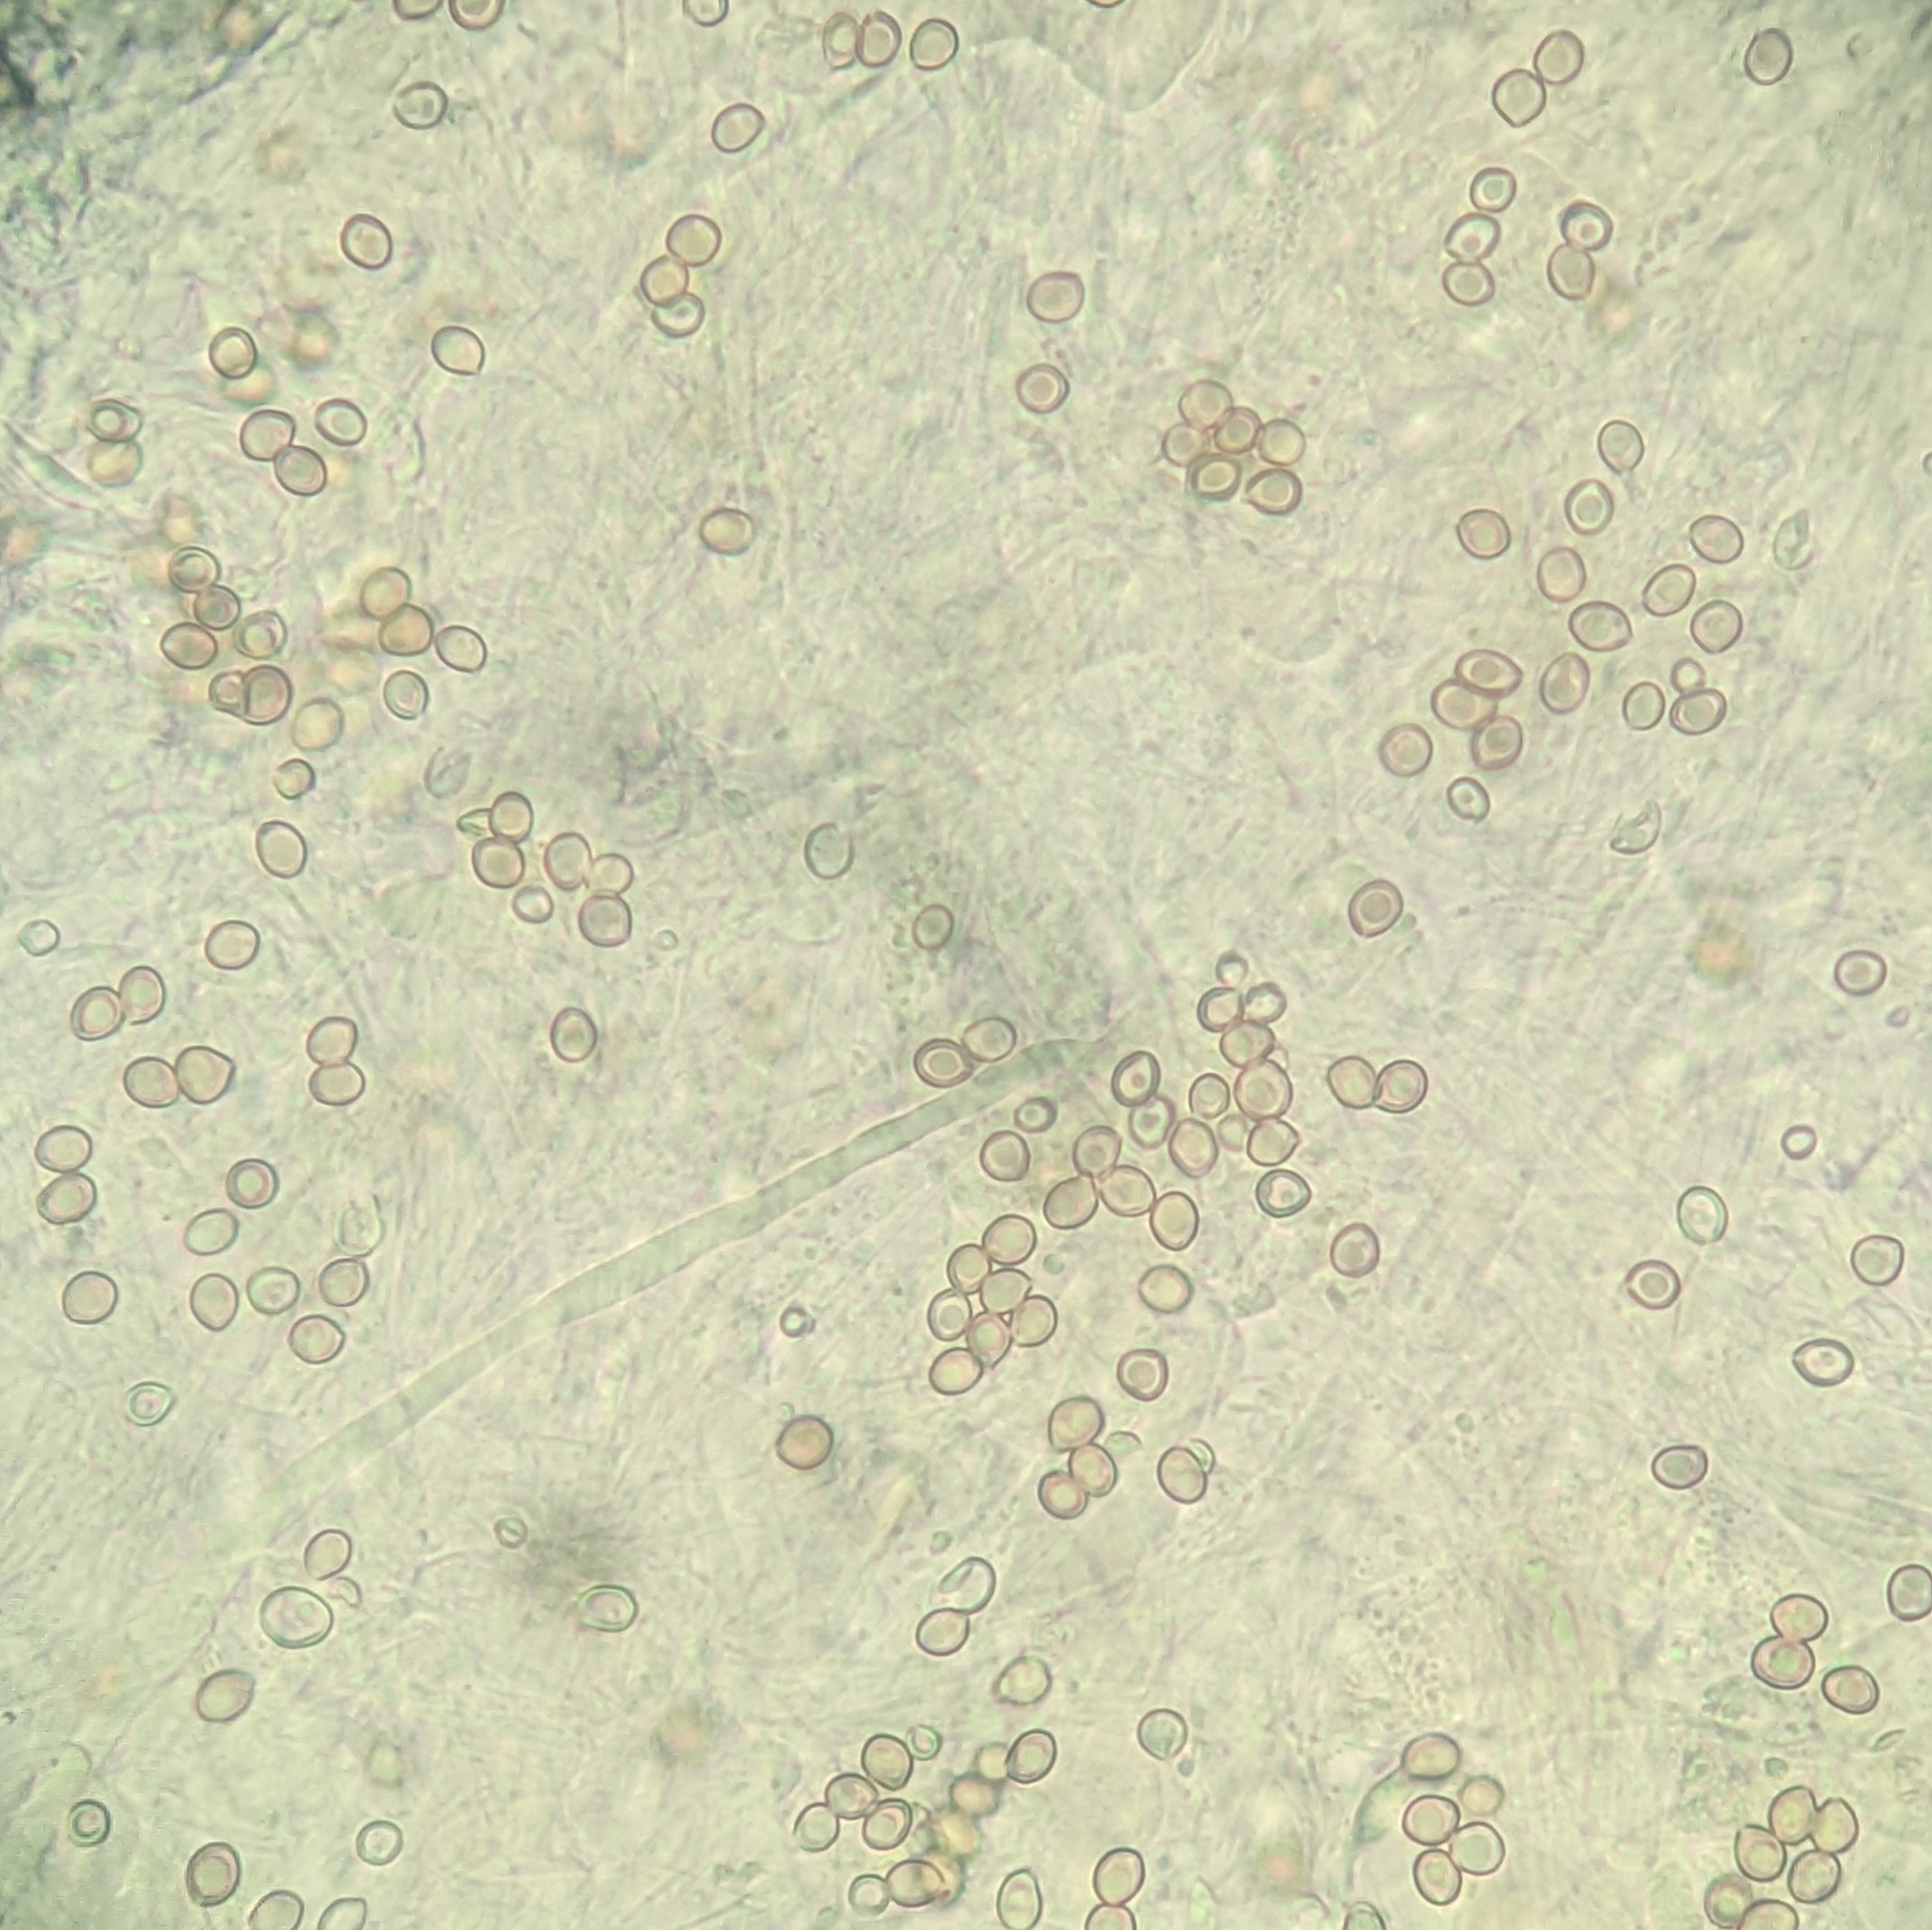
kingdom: Fungi
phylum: Basidiomycota
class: Agaricomycetes
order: Agaricales
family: Amanitaceae
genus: Amanita
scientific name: Amanita longistriata
